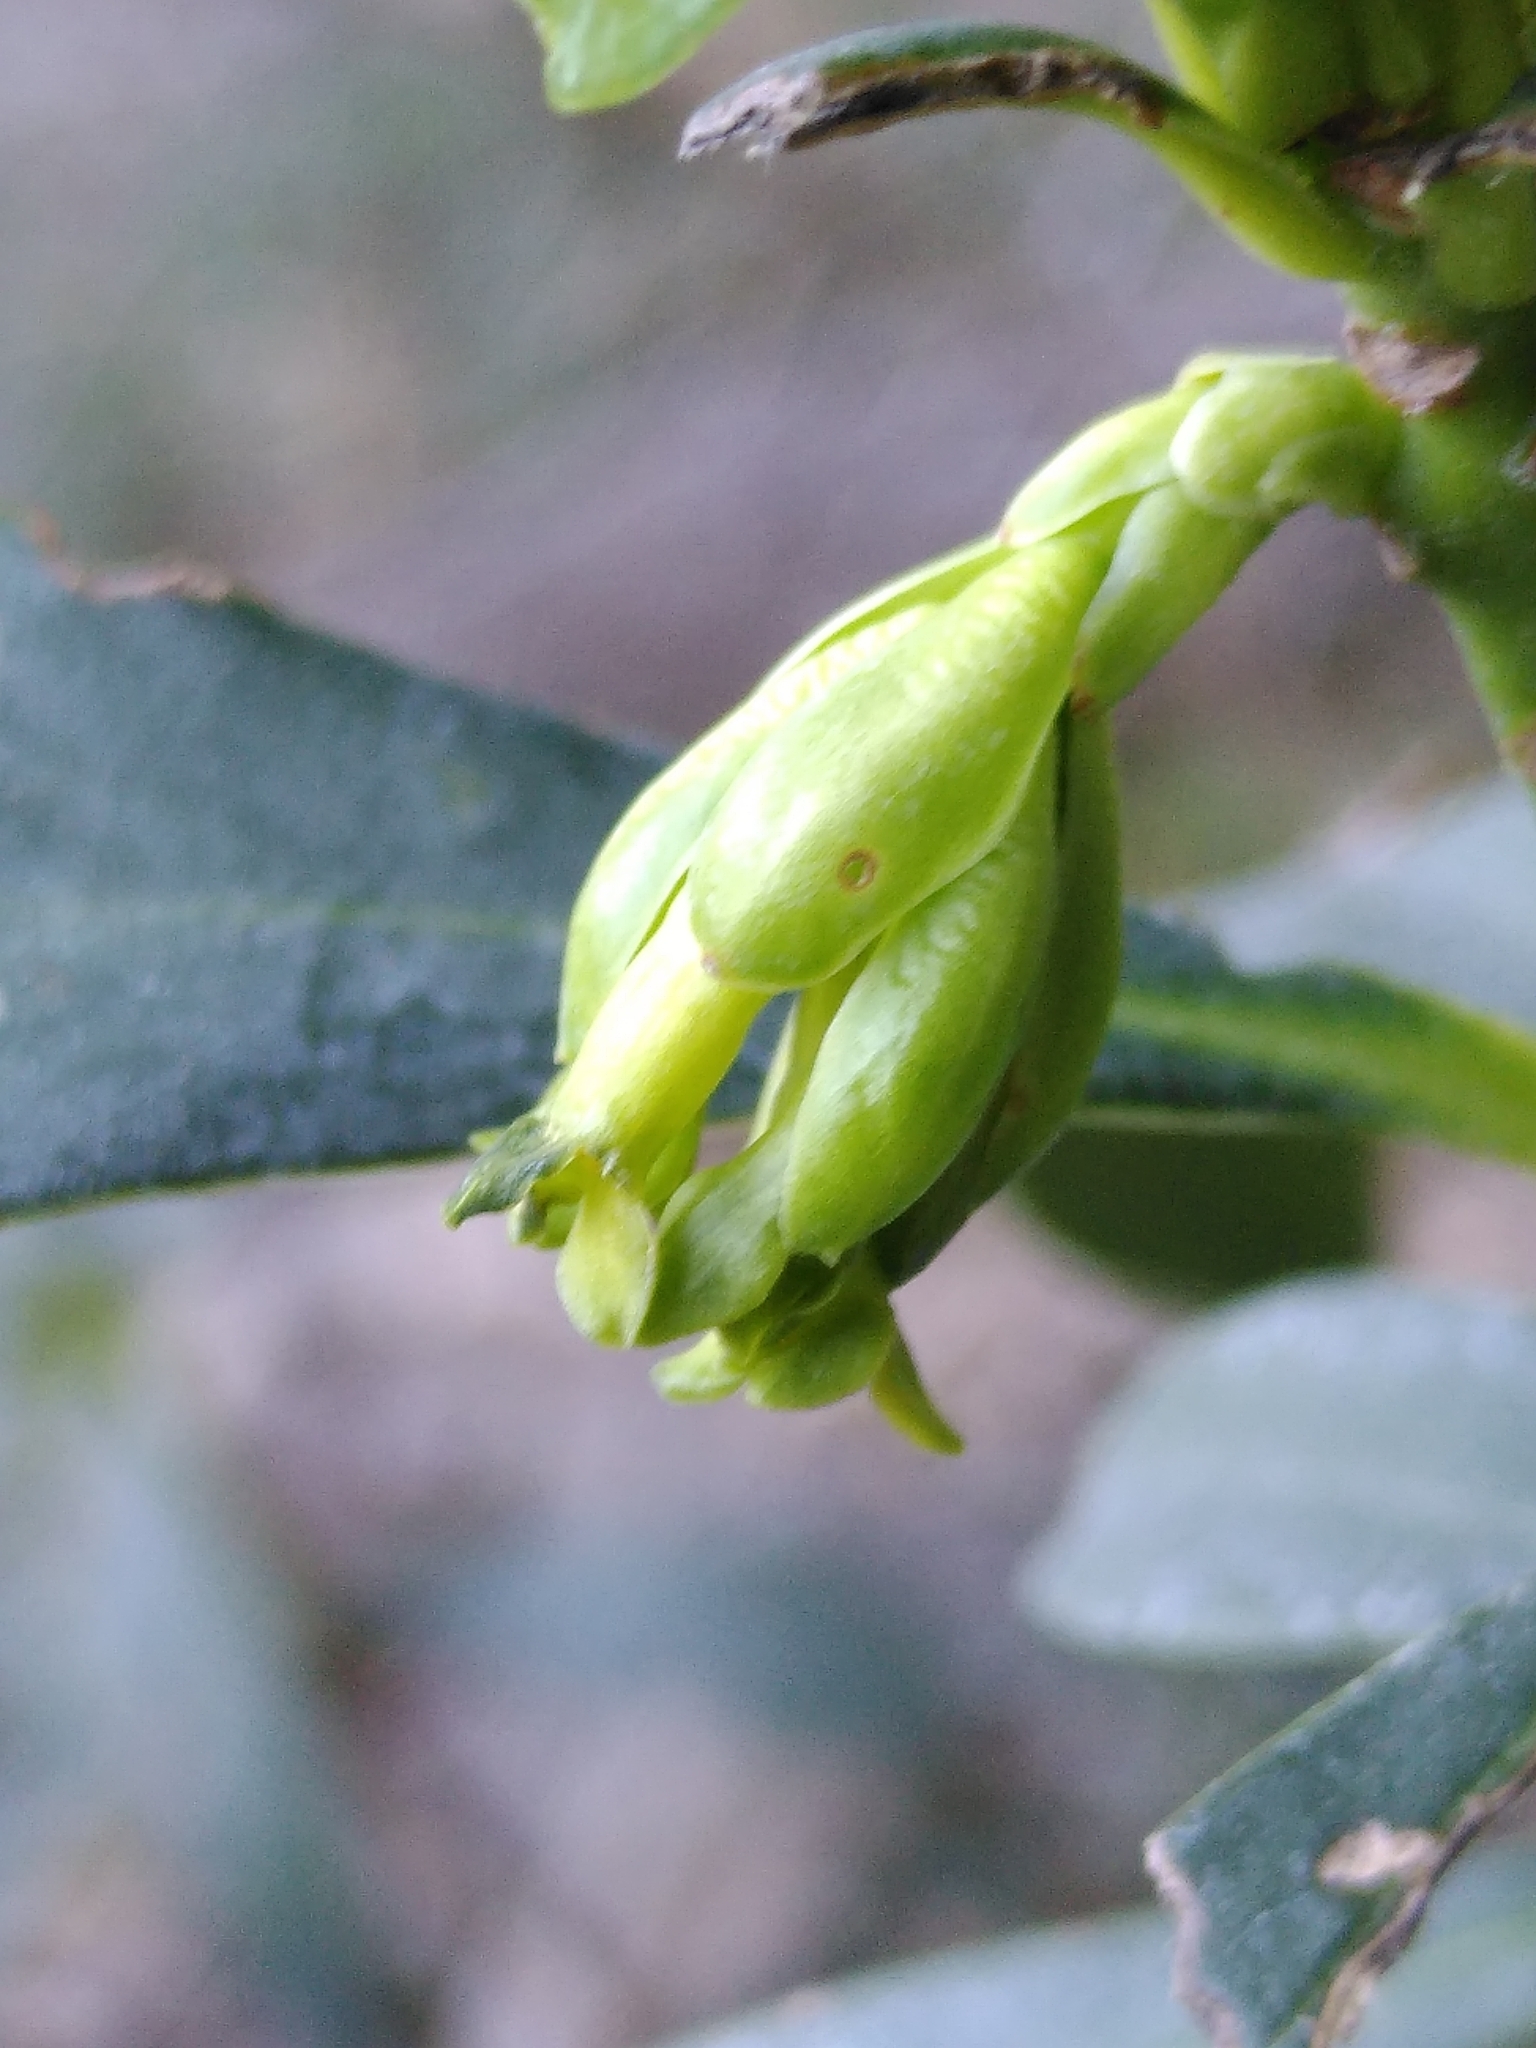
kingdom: Plantae
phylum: Tracheophyta
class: Magnoliopsida
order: Malvales
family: Thymelaeaceae
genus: Daphne
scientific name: Daphne laureola
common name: Spurge-laurel
